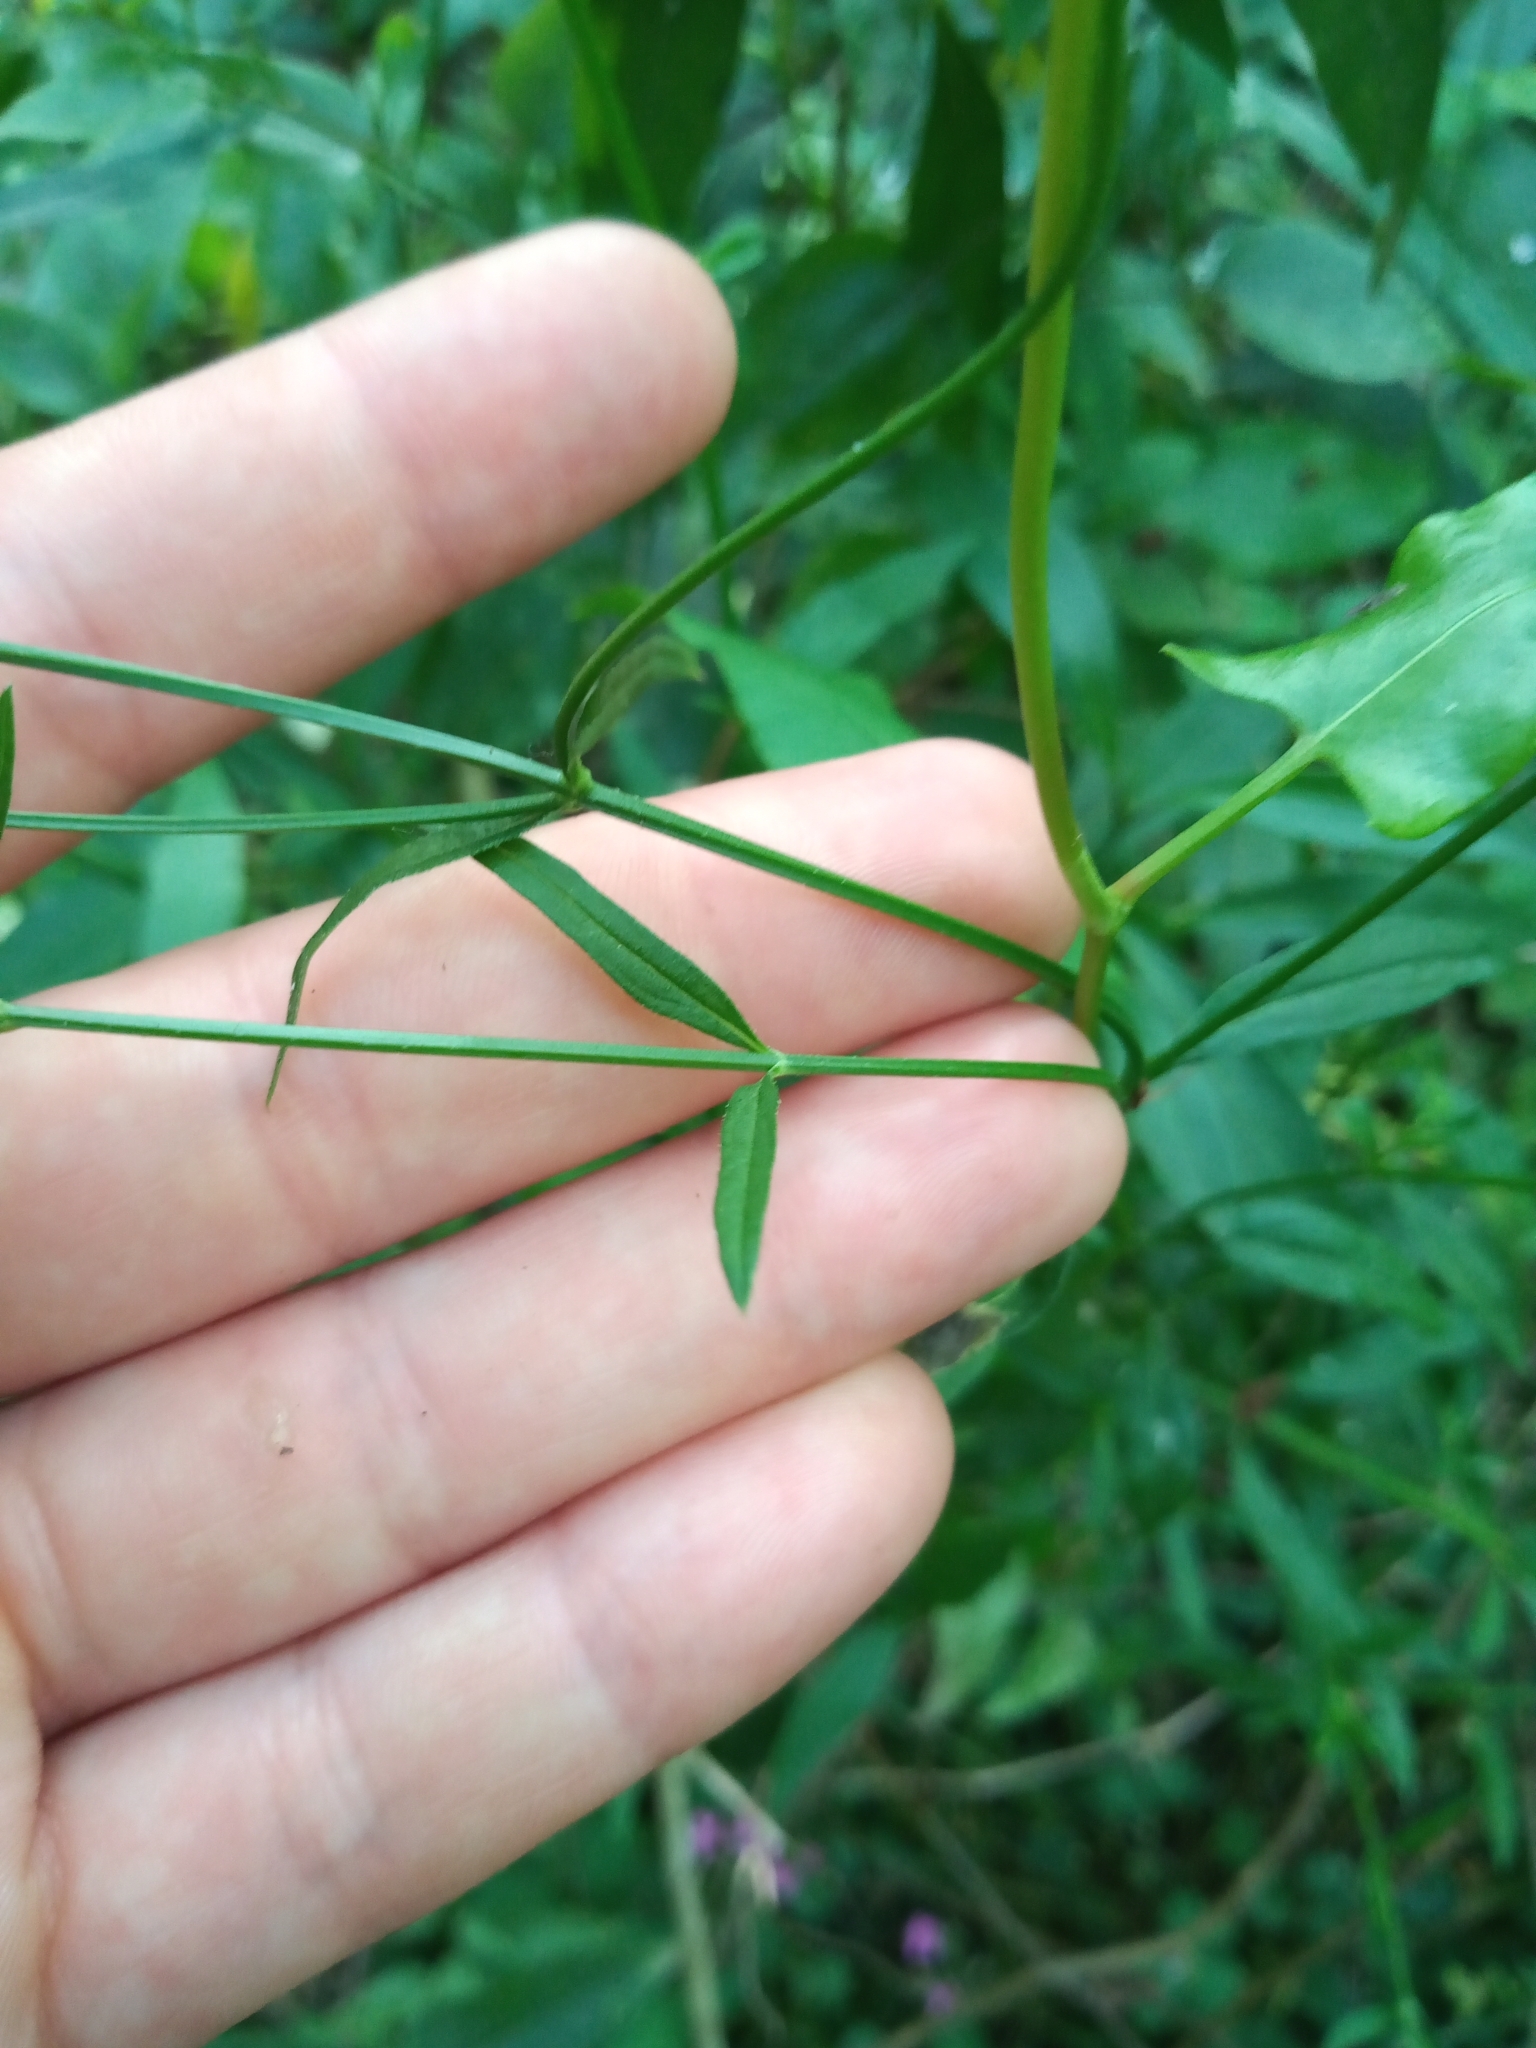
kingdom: Plantae
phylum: Tracheophyta
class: Magnoliopsida
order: Lamiales
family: Verbenaceae
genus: Verbena
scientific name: Verbena montevidensis
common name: Uruguayan vervain
